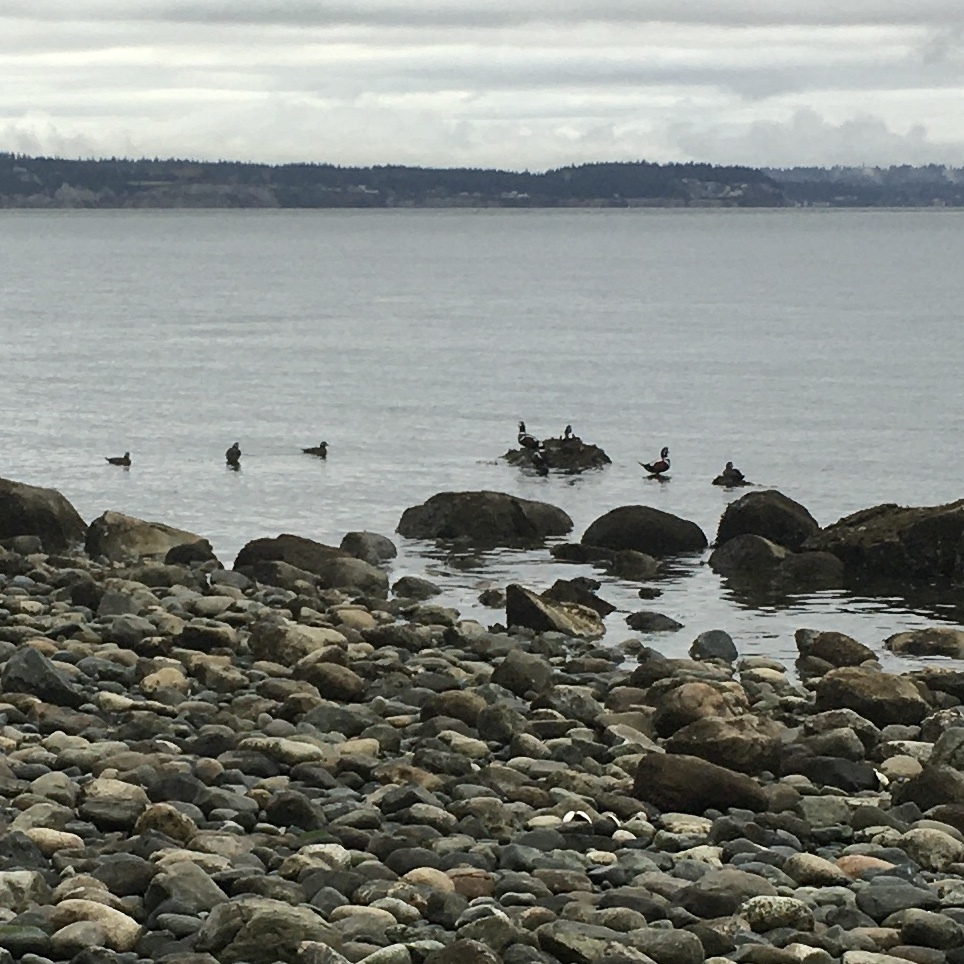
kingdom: Animalia
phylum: Chordata
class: Aves
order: Anseriformes
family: Anatidae
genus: Histrionicus
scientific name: Histrionicus histrionicus
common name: Harlequin duck
